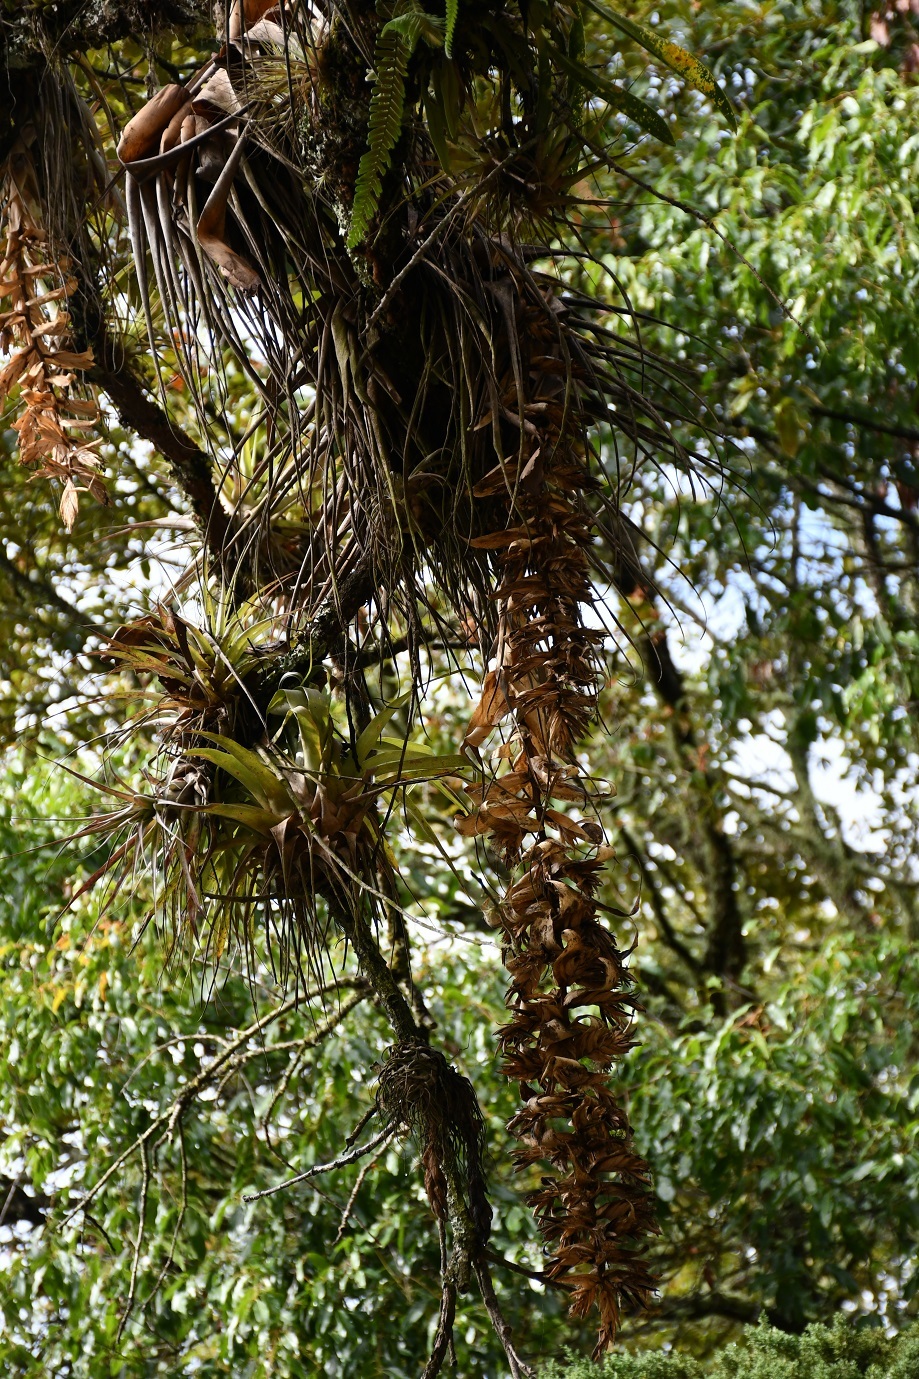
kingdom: Plantae
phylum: Tracheophyta
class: Liliopsida
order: Poales
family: Bromeliaceae
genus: Tillandsia
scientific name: Tillandsia prodigiosa
